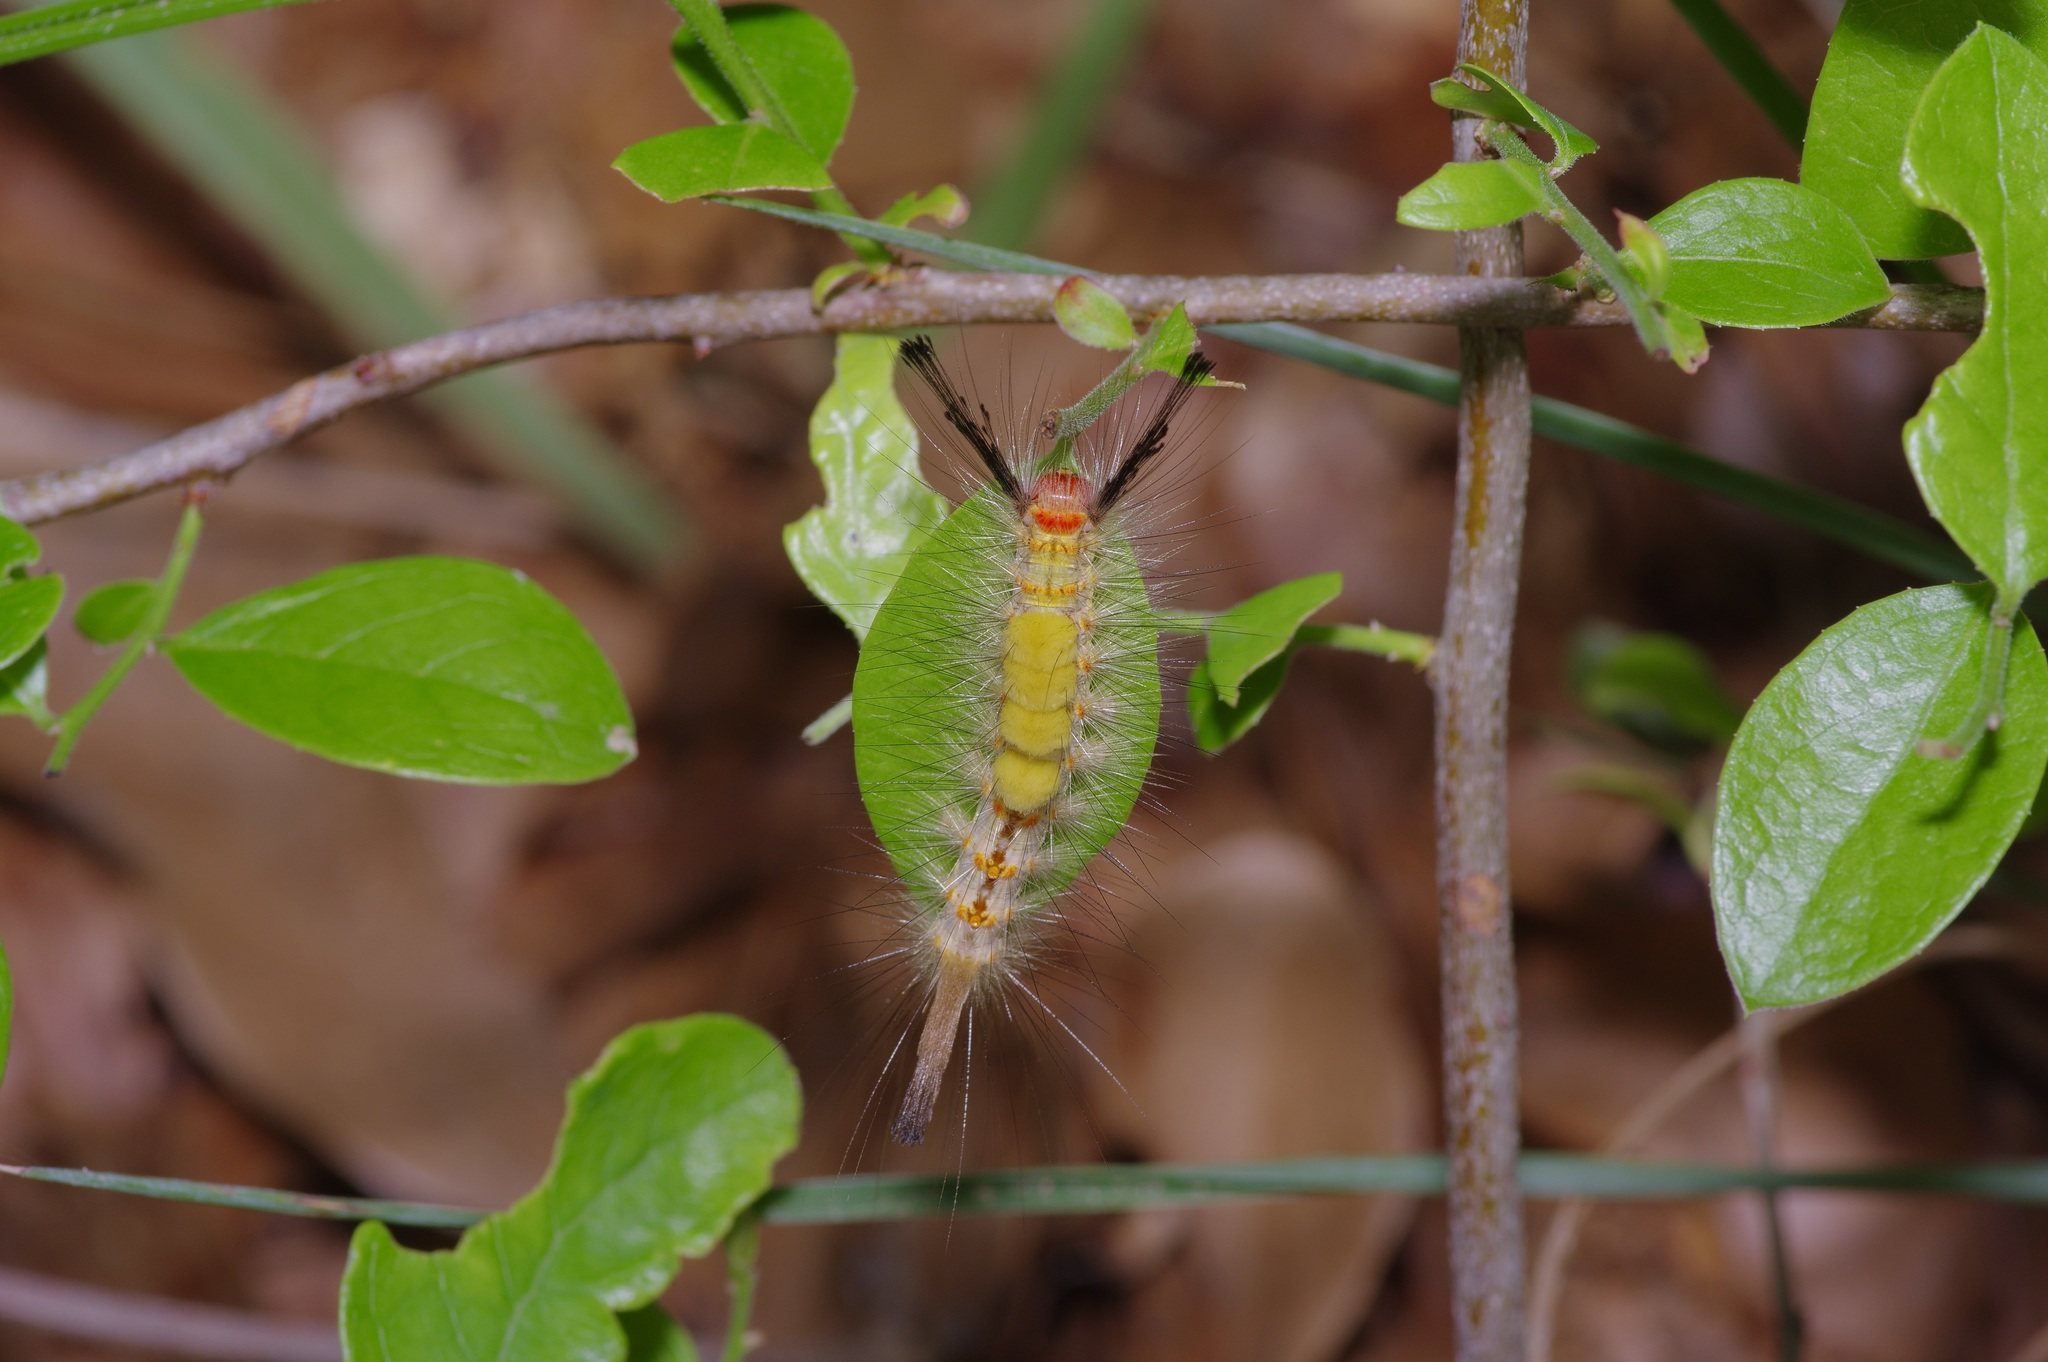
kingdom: Animalia
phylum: Arthropoda
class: Insecta
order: Lepidoptera
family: Erebidae
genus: Orgyia
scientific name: Orgyia detrita
